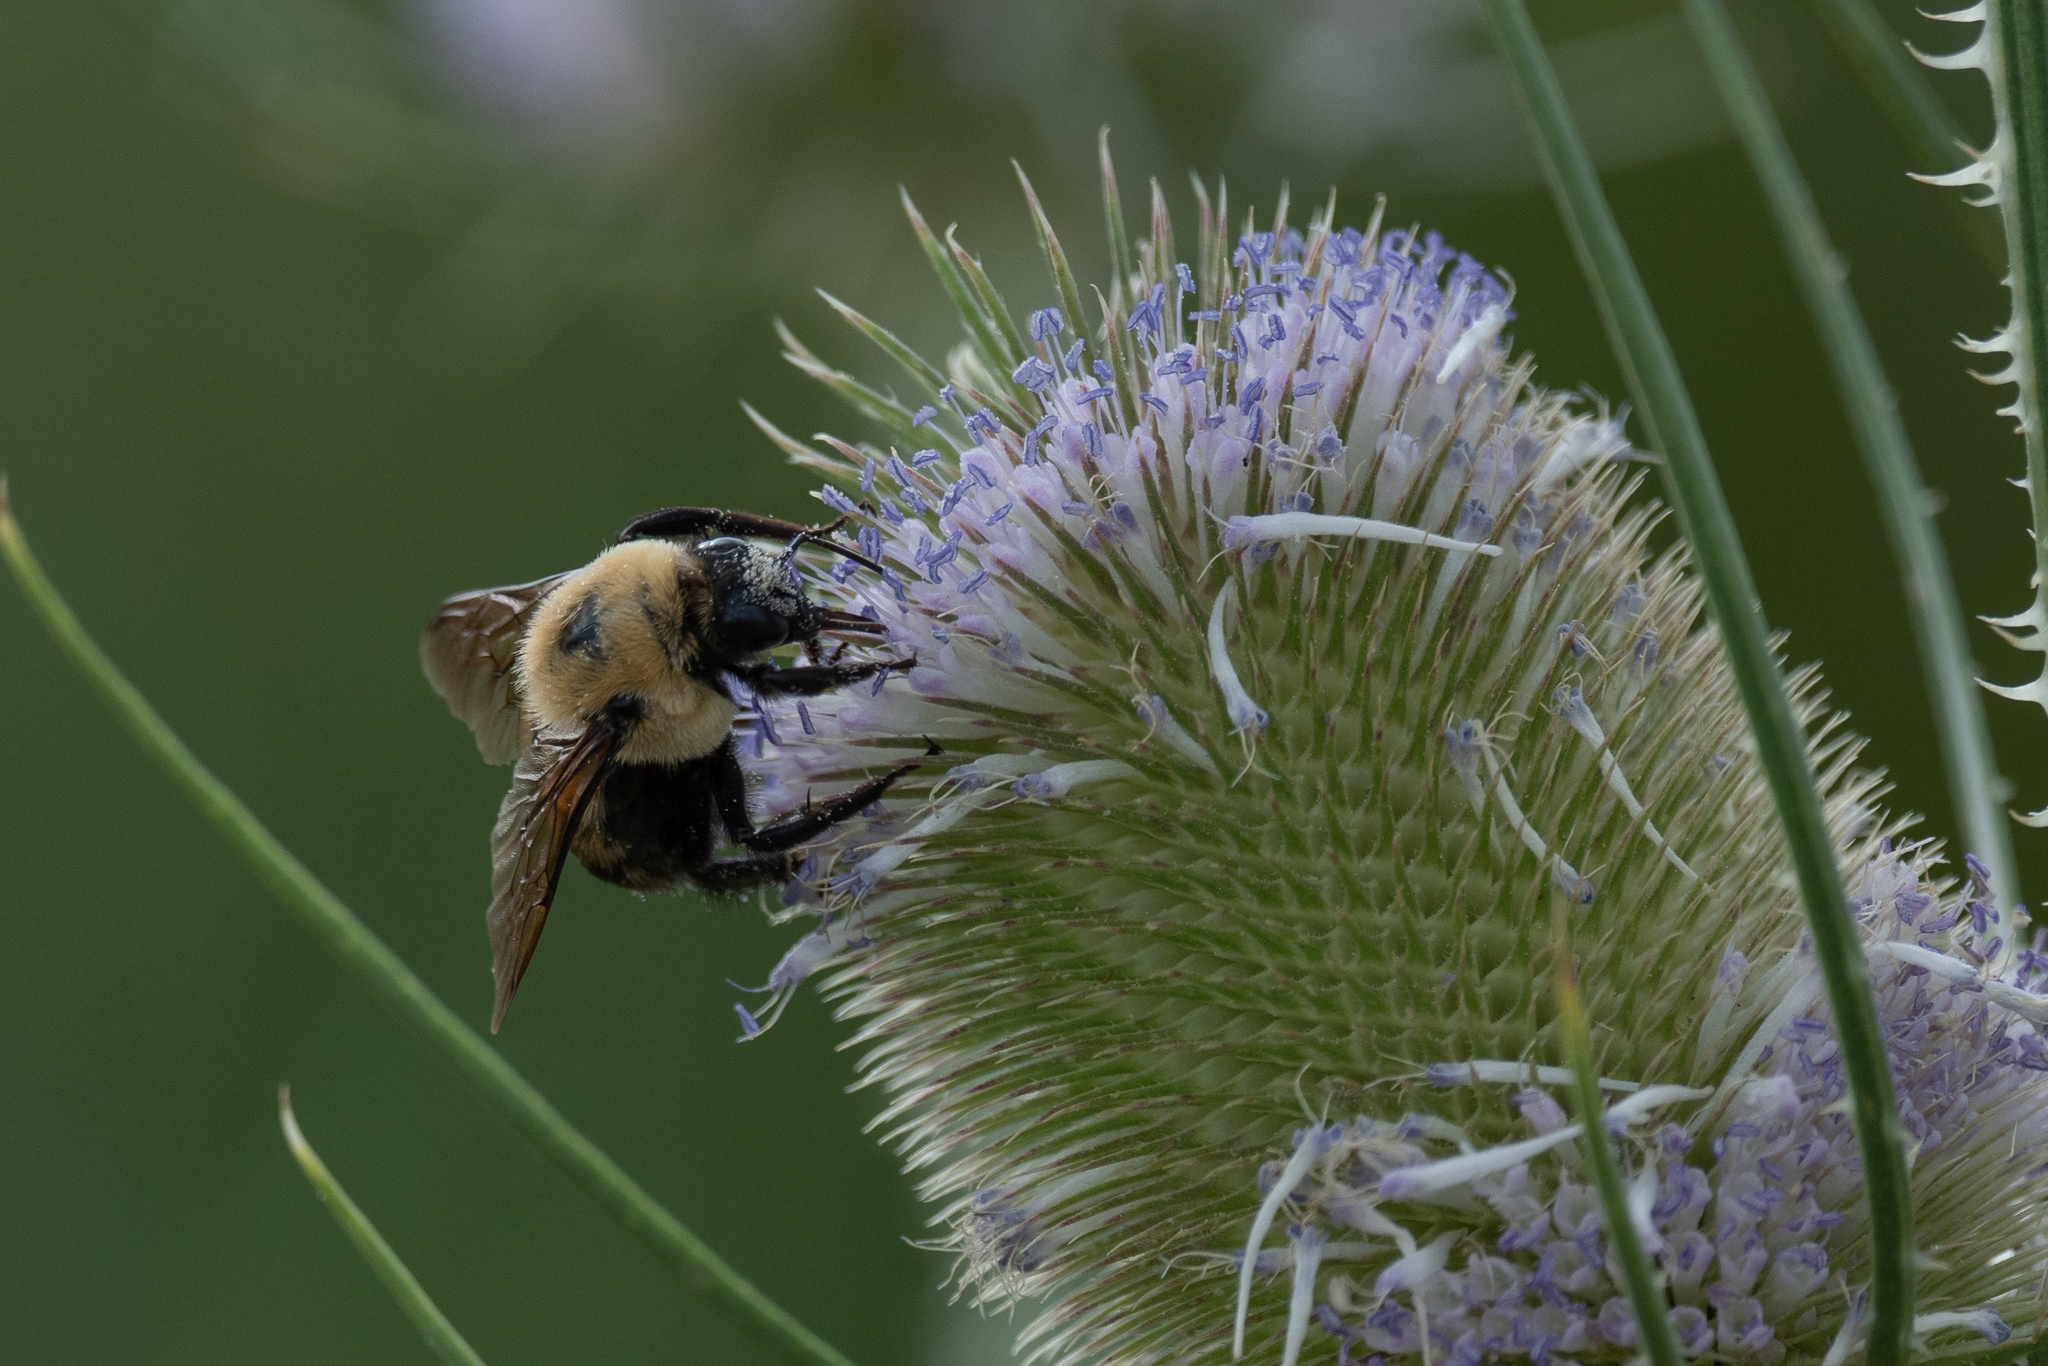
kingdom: Animalia
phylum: Arthropoda
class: Insecta
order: Hymenoptera
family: Apidae
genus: Bombus
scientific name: Bombus griseocollis
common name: Brown-belted bumble bee
